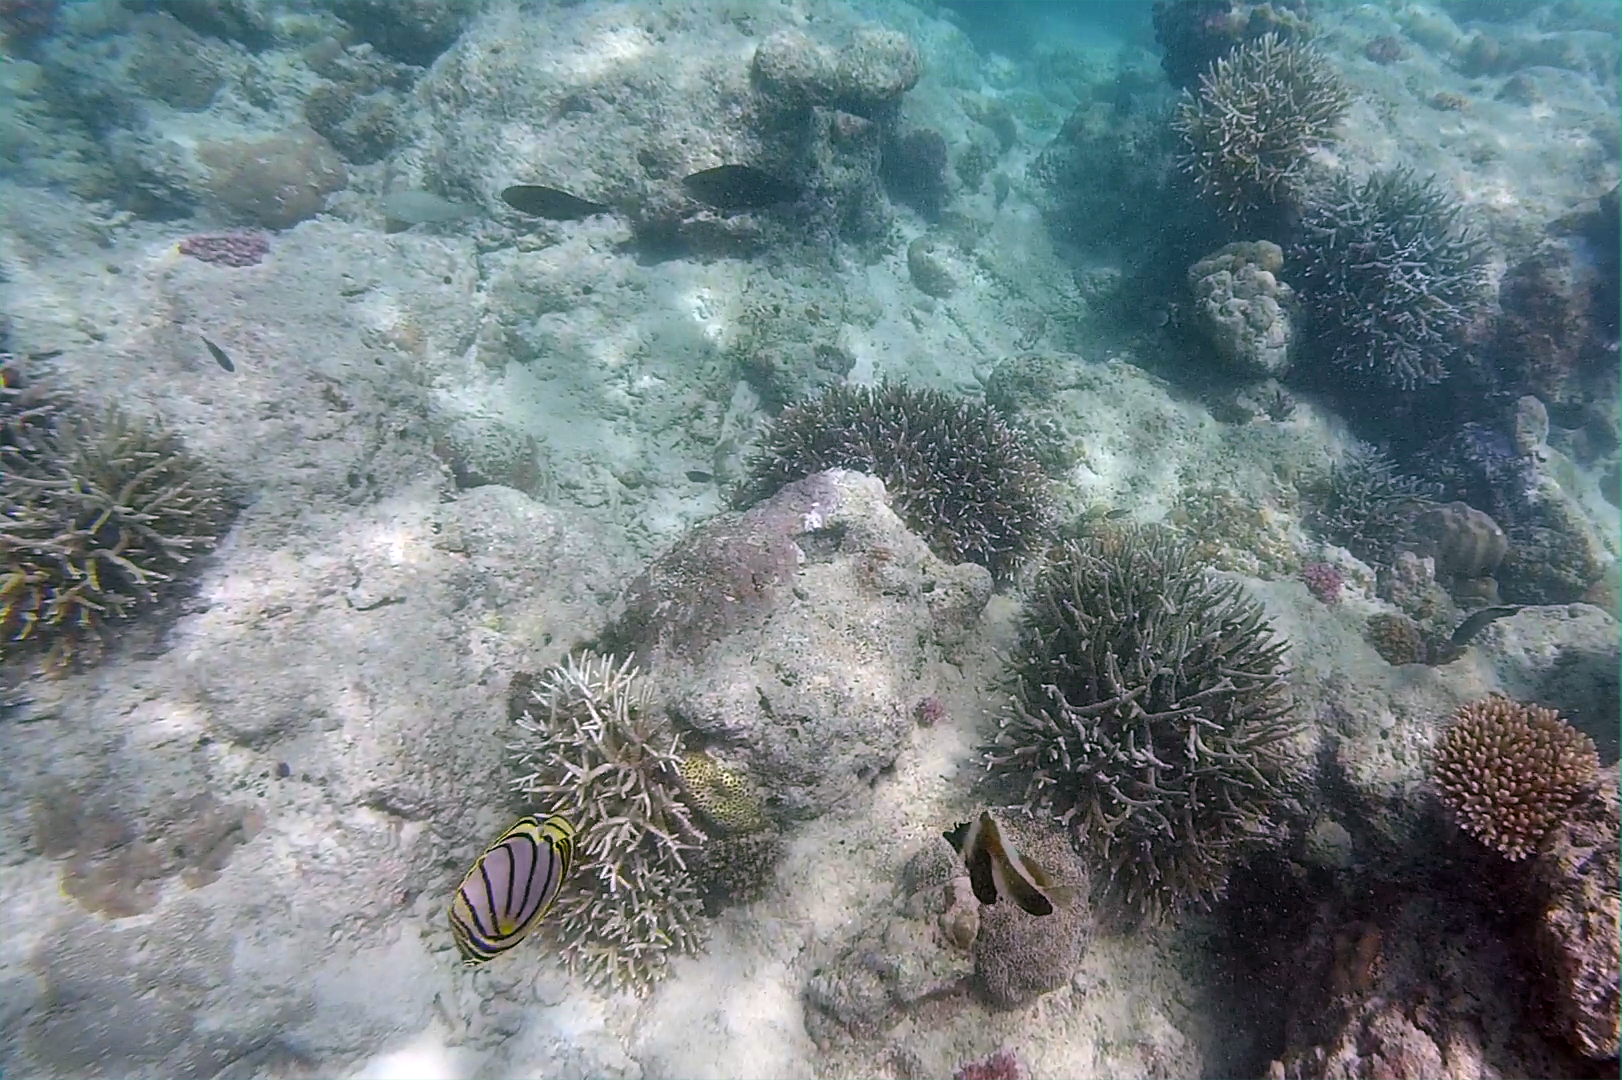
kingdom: Animalia
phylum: Chordata
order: Perciformes
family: Chaetodontidae
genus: Chaetodon
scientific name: Chaetodon meyeri
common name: Meyer's butterflyfish
